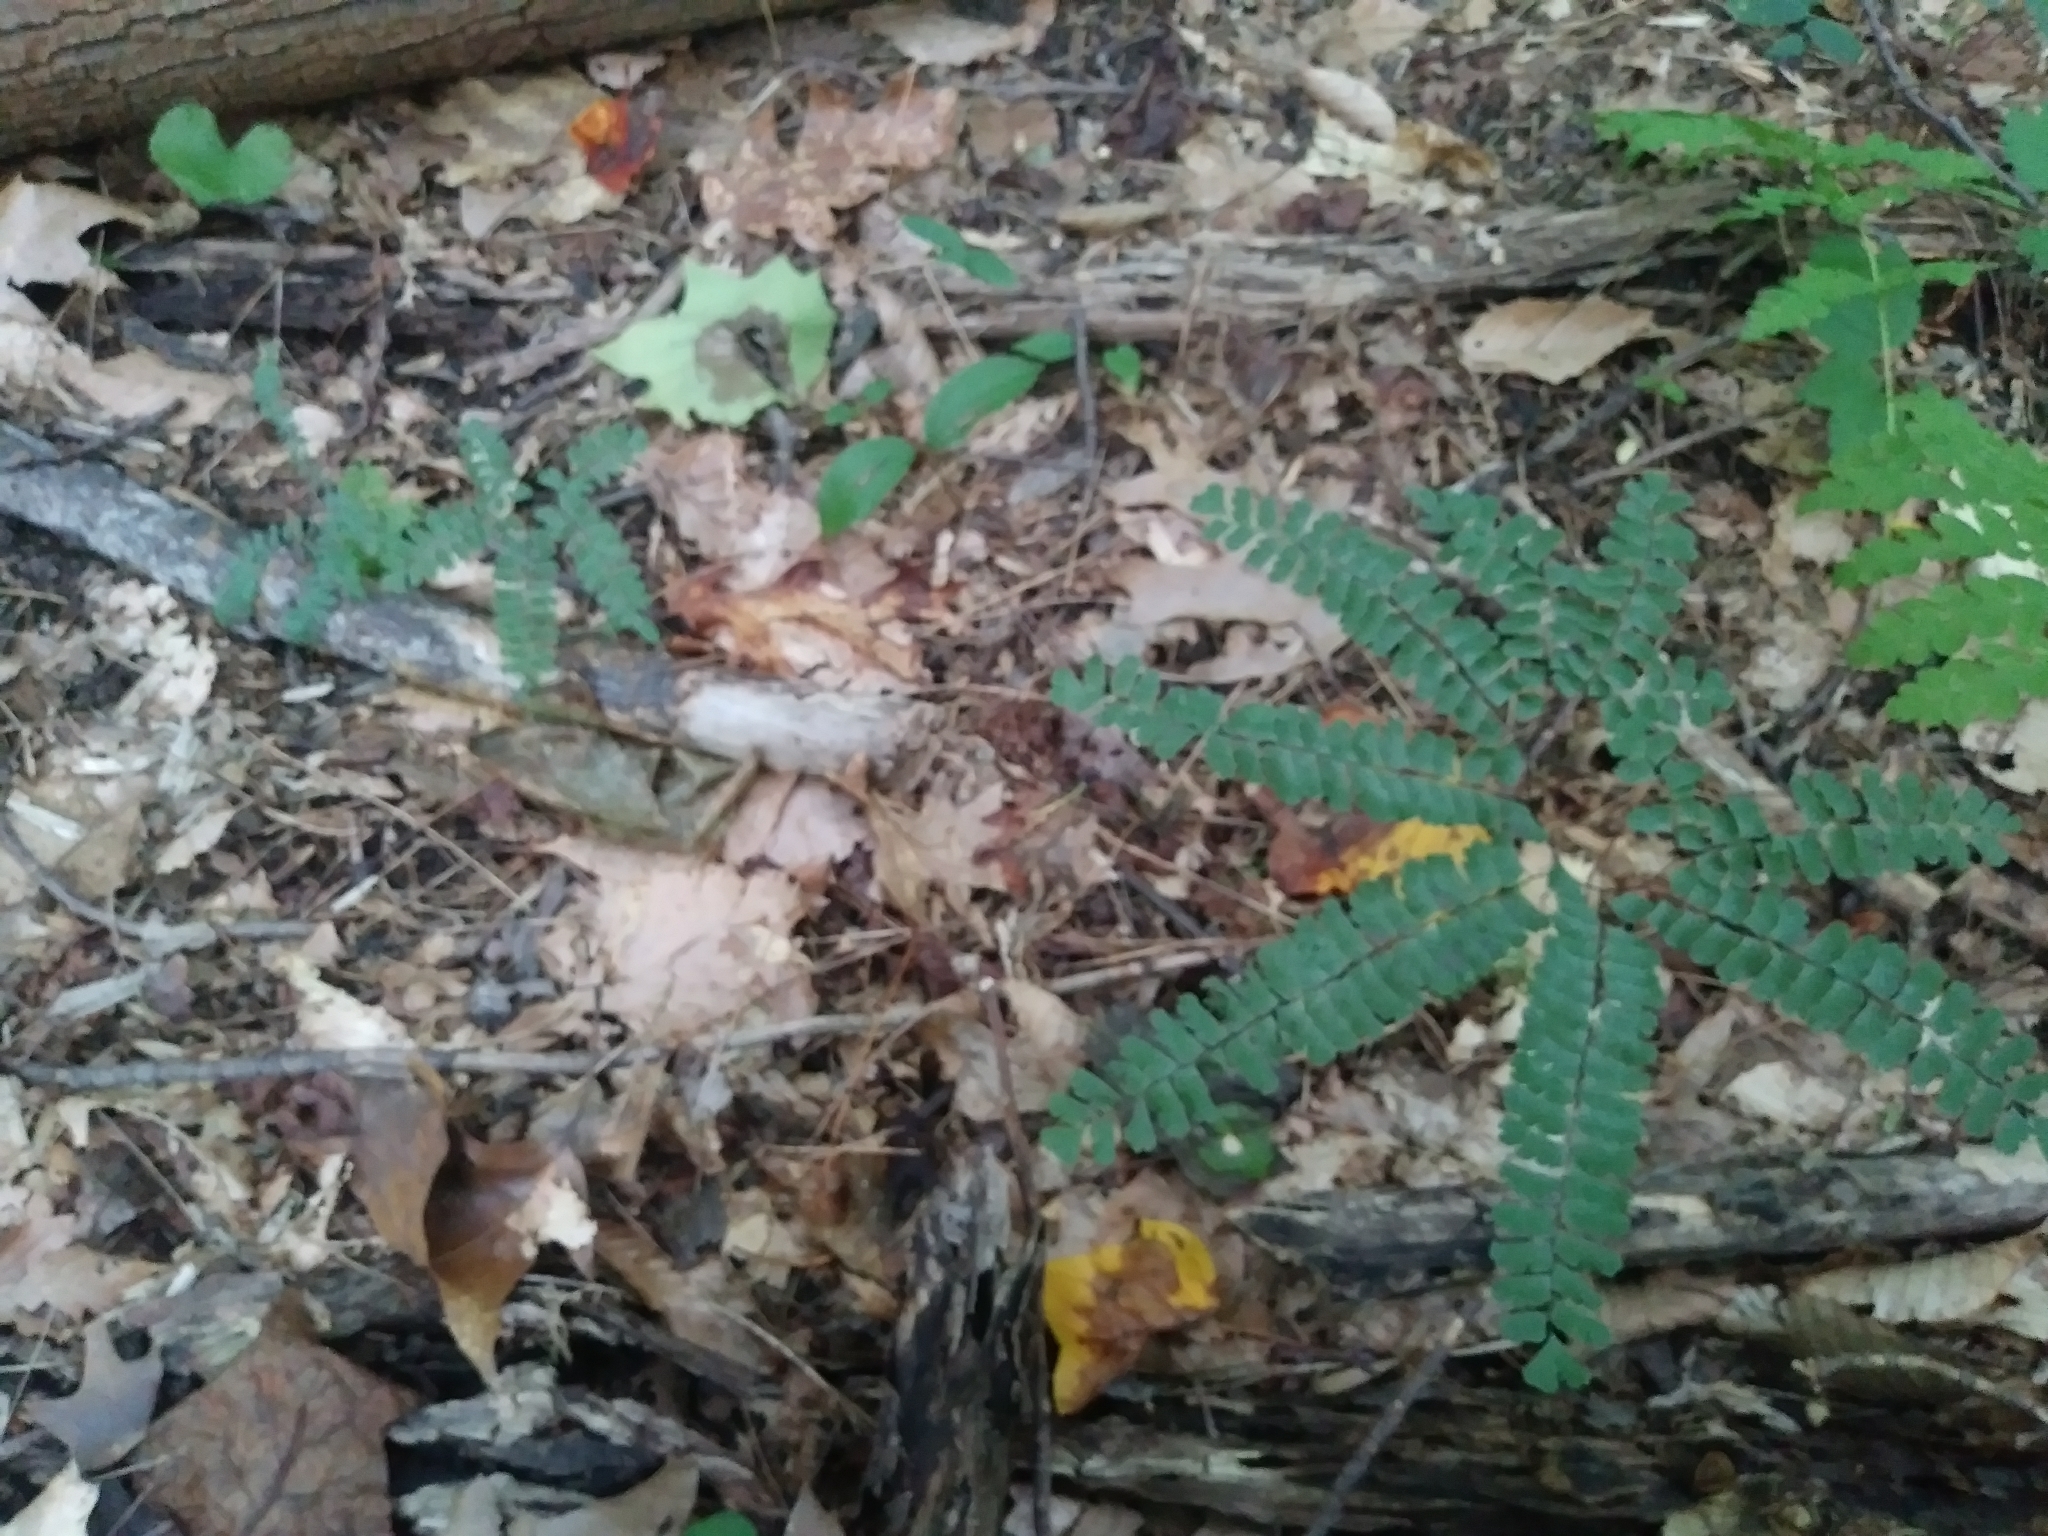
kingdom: Plantae
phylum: Tracheophyta
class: Polypodiopsida
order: Polypodiales
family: Pteridaceae
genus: Adiantum
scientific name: Adiantum pedatum
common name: Five-finger fern
